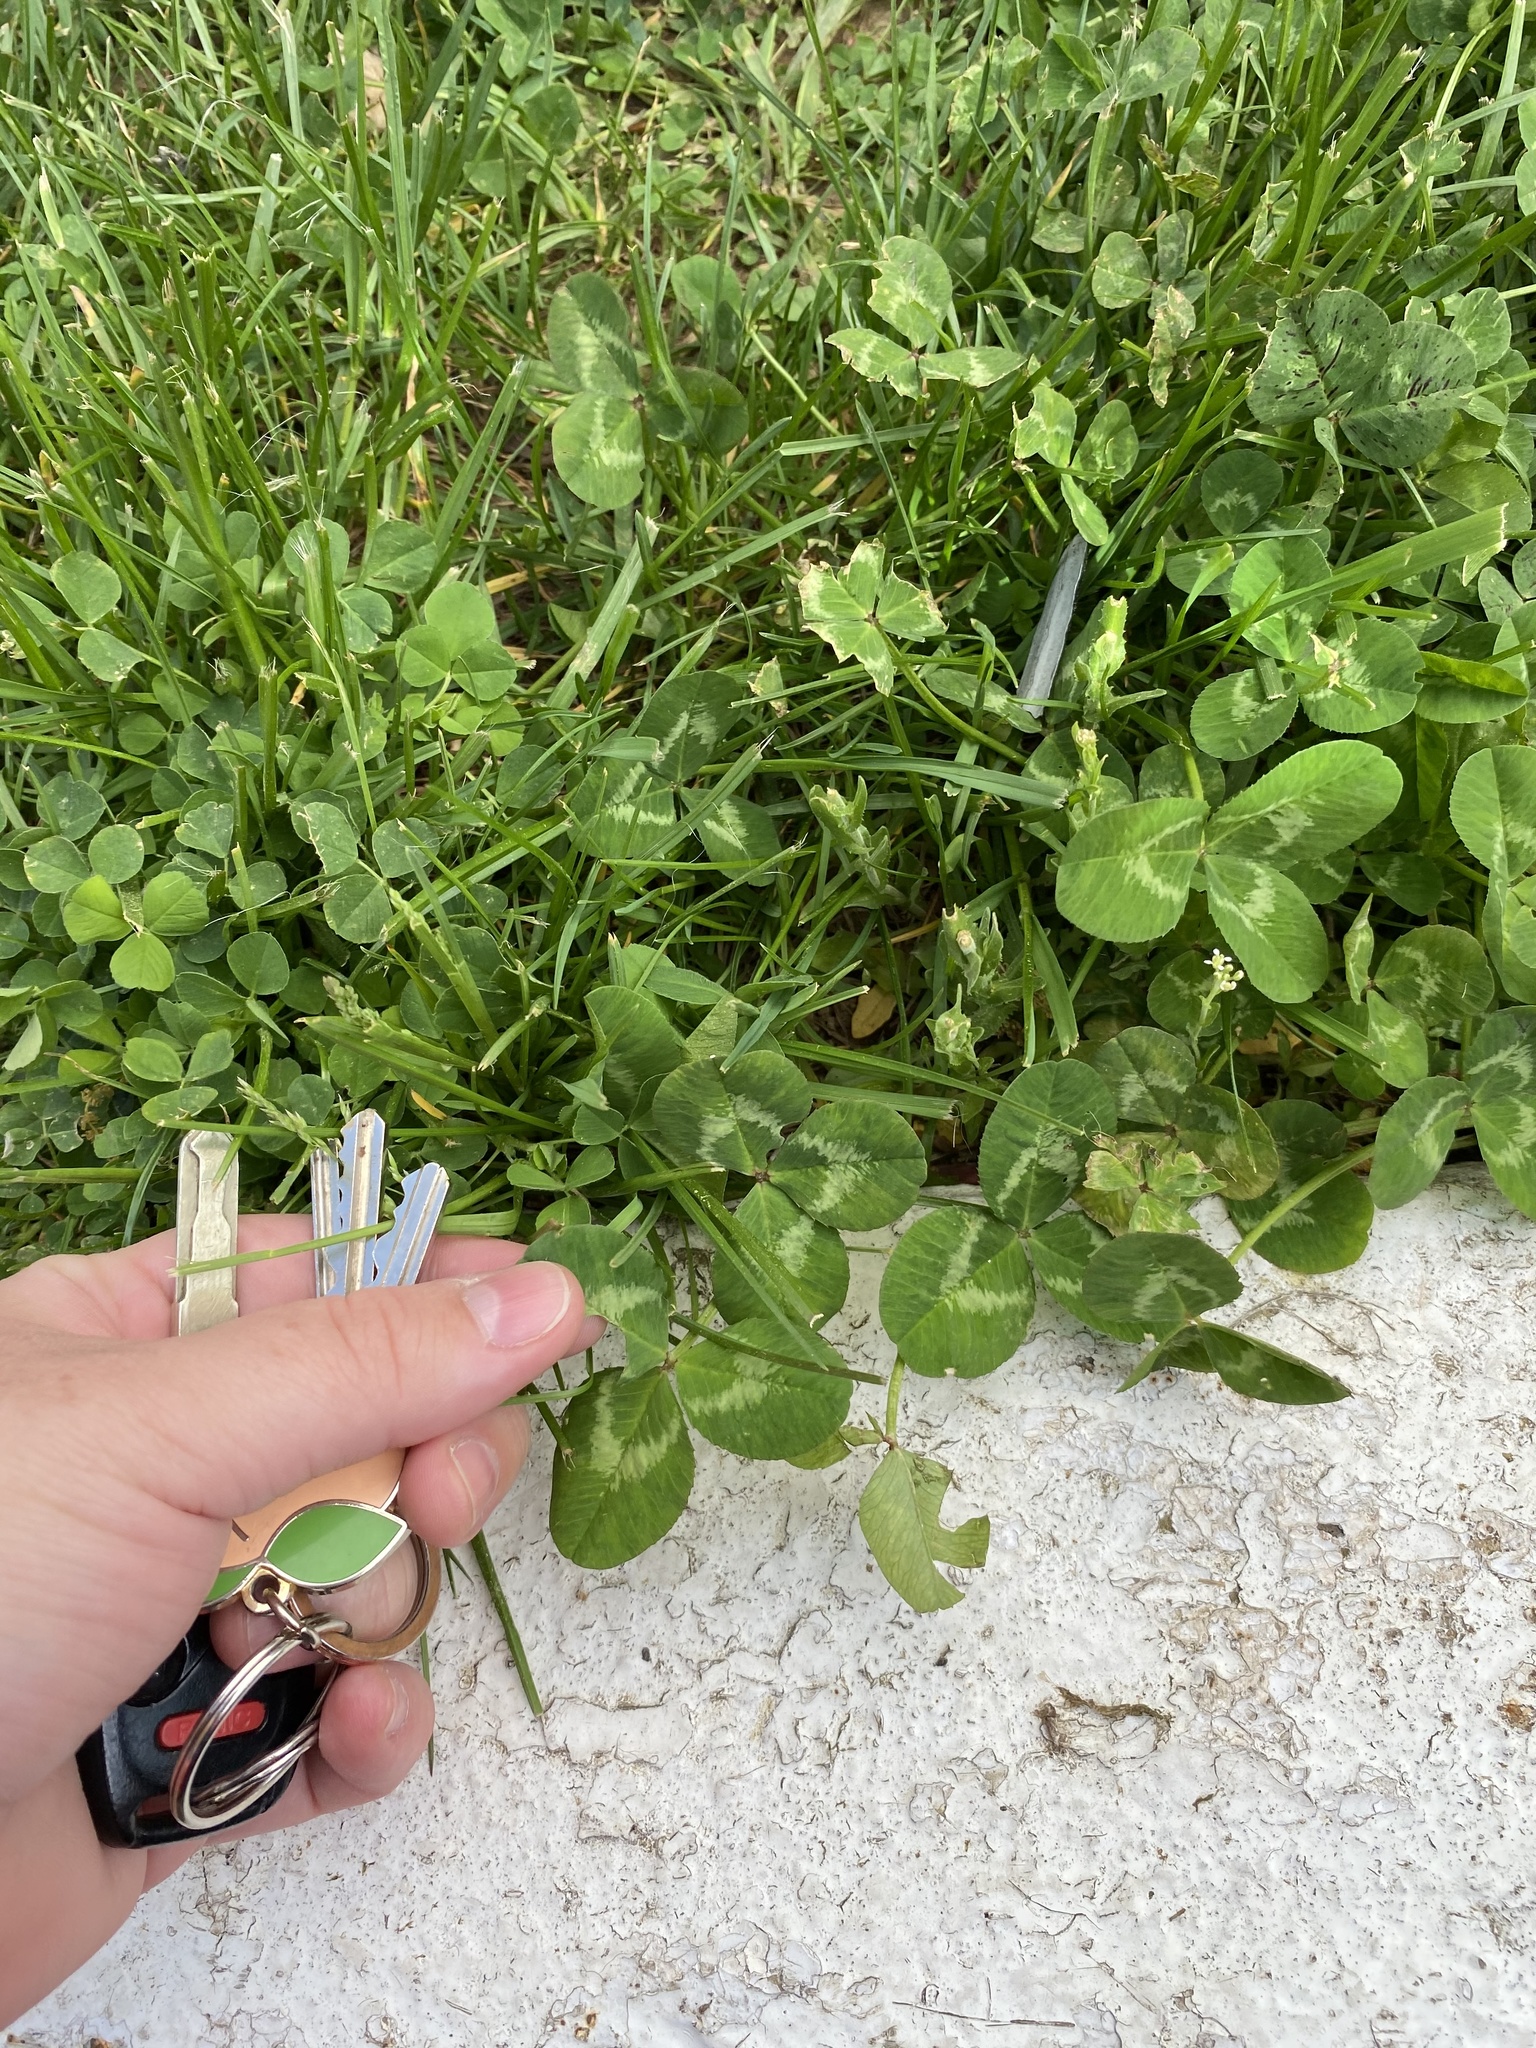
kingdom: Plantae
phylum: Tracheophyta
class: Magnoliopsida
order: Fabales
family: Fabaceae
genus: Trifolium
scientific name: Trifolium repens
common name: White clover
